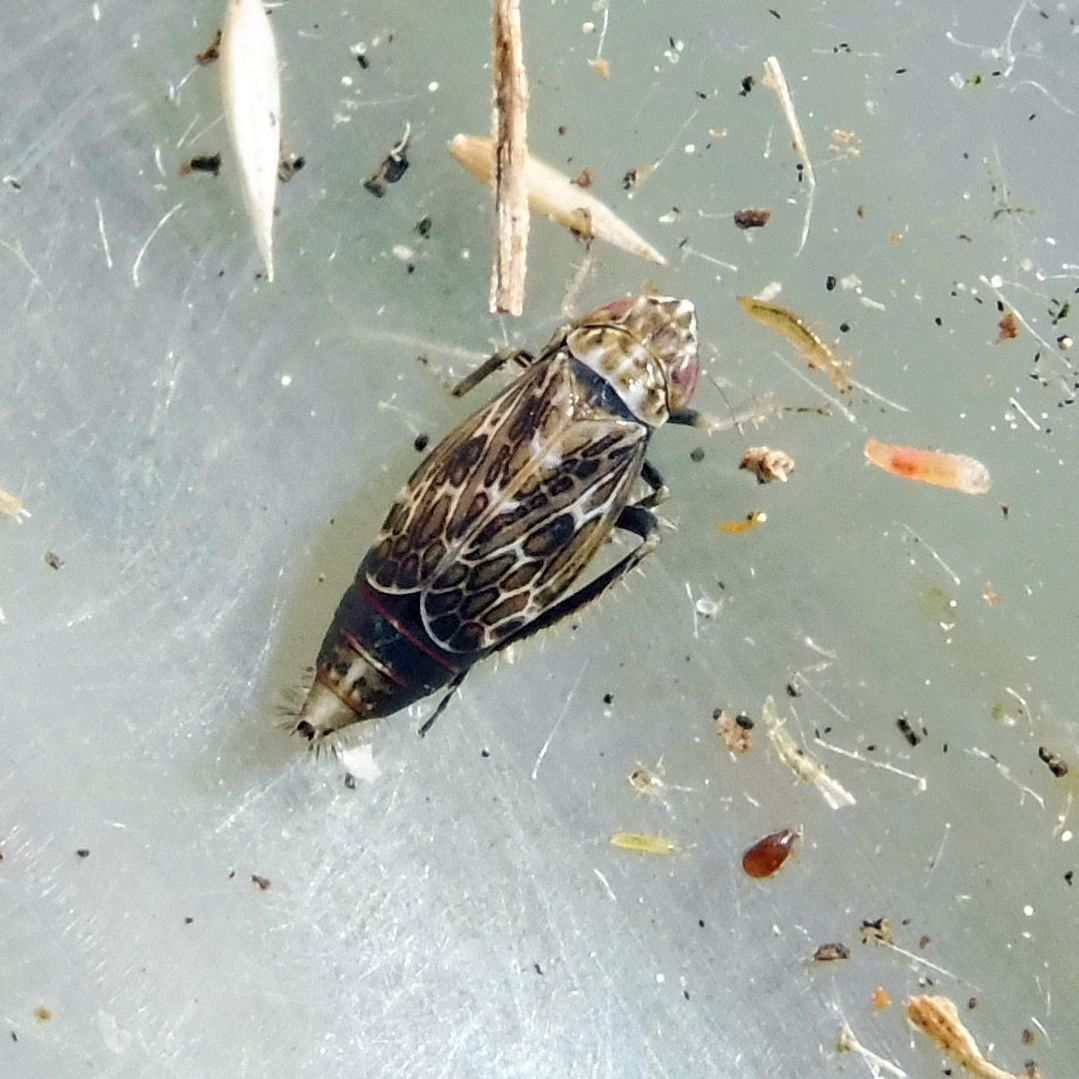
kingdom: Animalia
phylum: Arthropoda
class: Insecta
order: Hemiptera
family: Cicadellidae
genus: Errastunus
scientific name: Errastunus ocellaris
